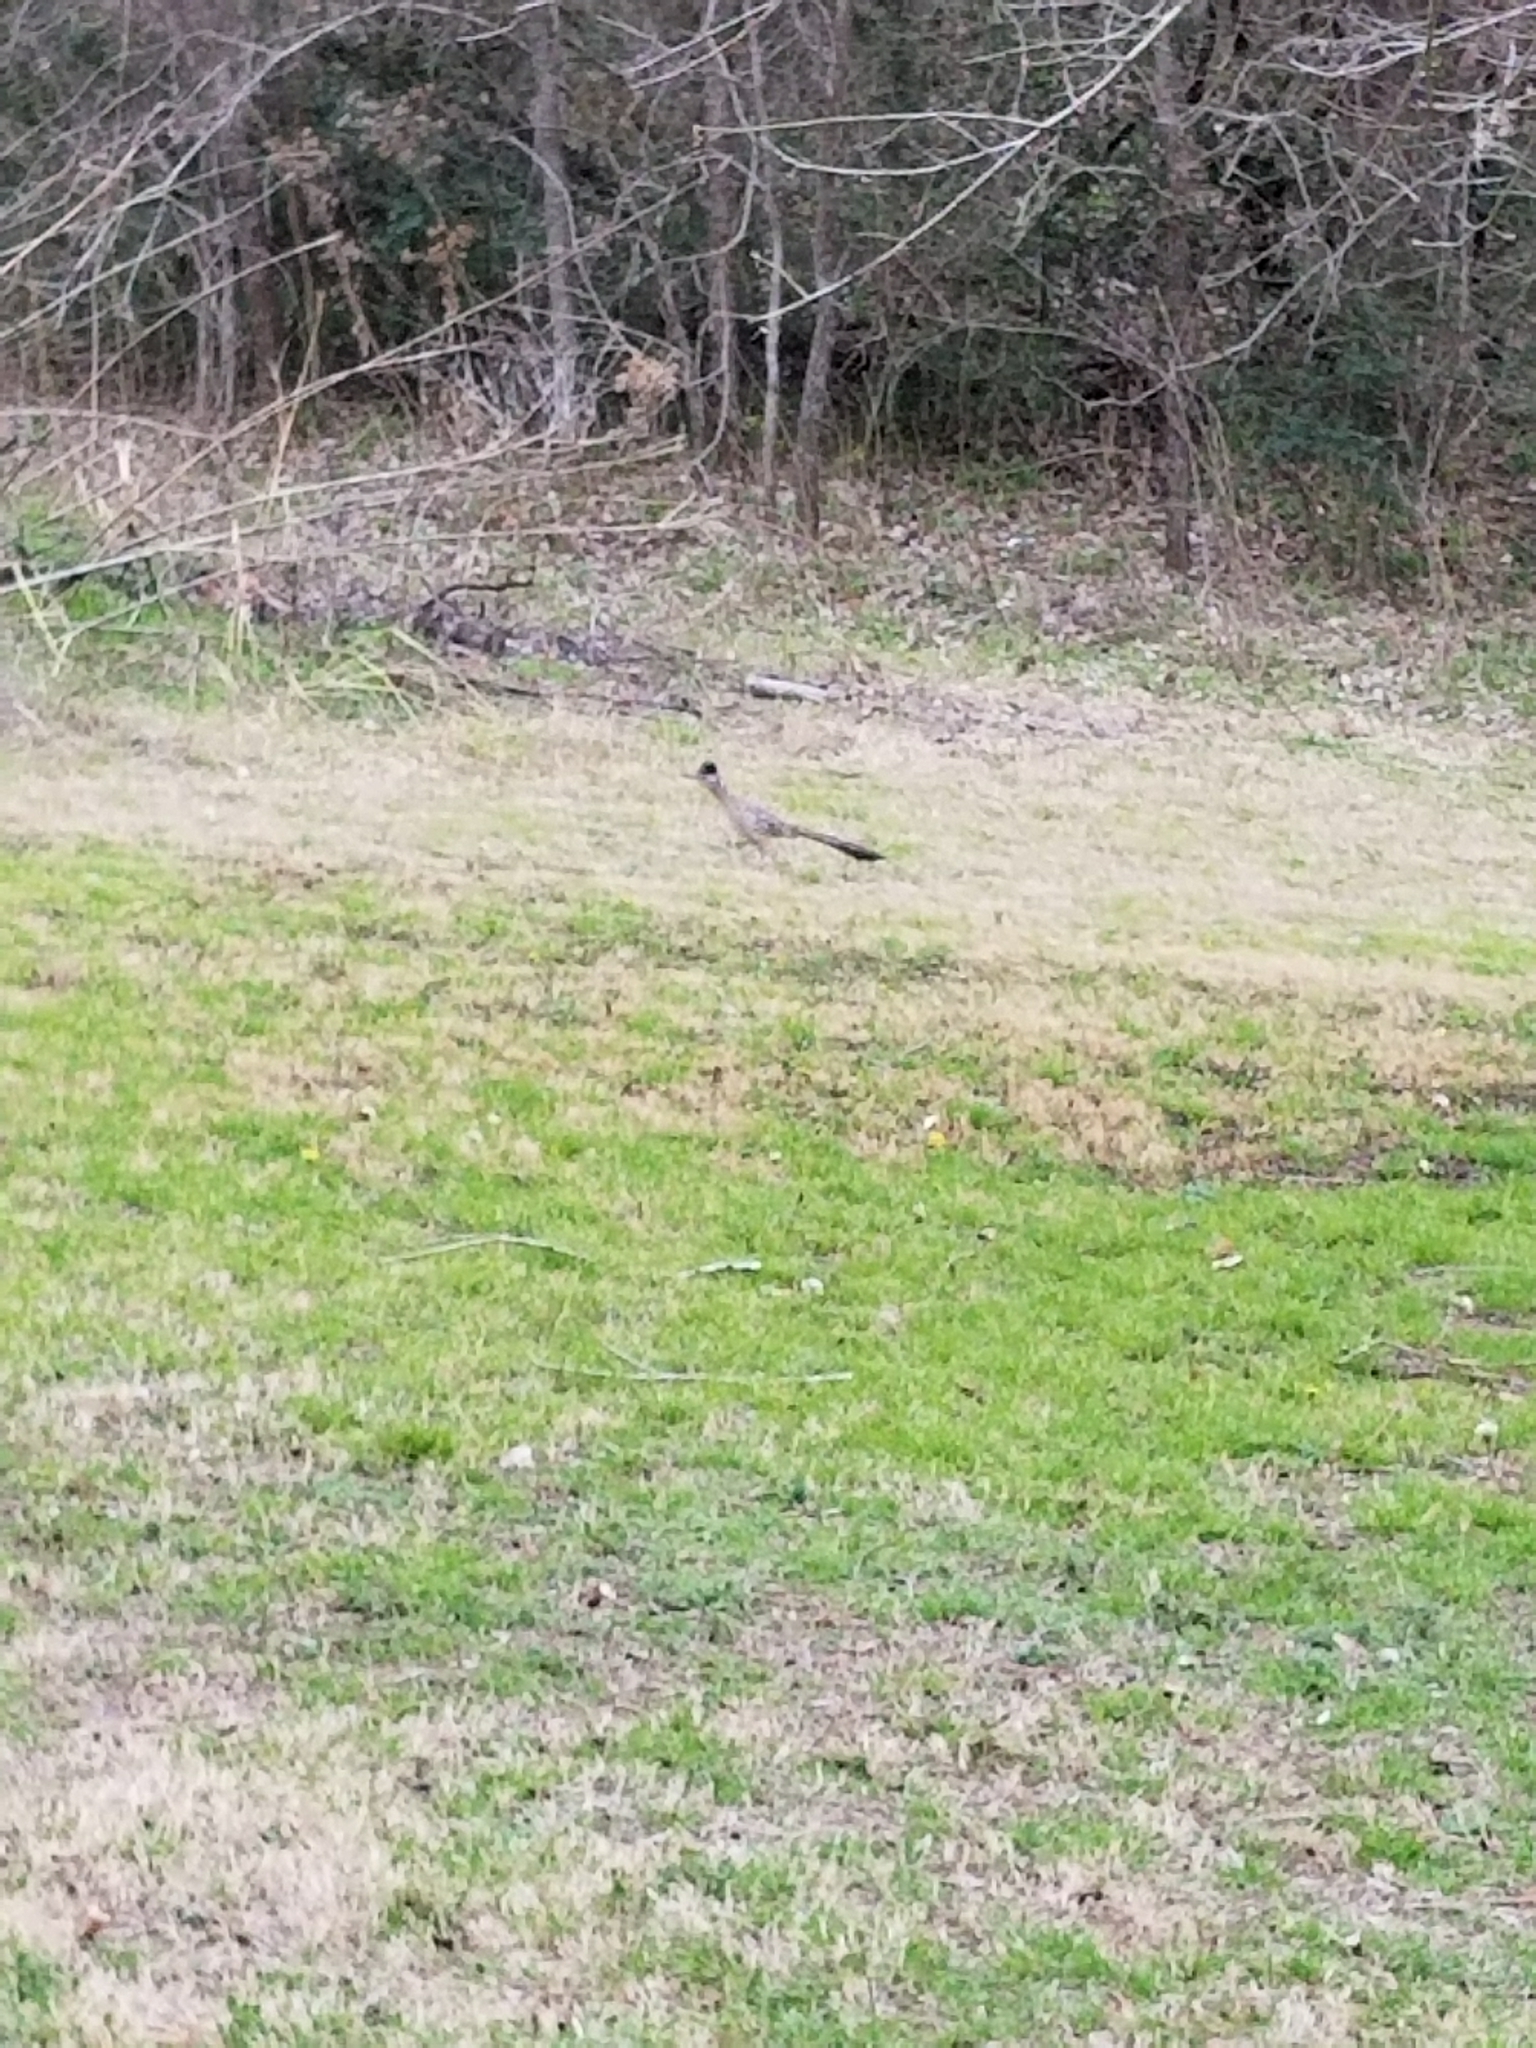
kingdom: Animalia
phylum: Chordata
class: Aves
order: Cuculiformes
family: Cuculidae
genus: Geococcyx
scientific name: Geococcyx californianus
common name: Greater roadrunner
